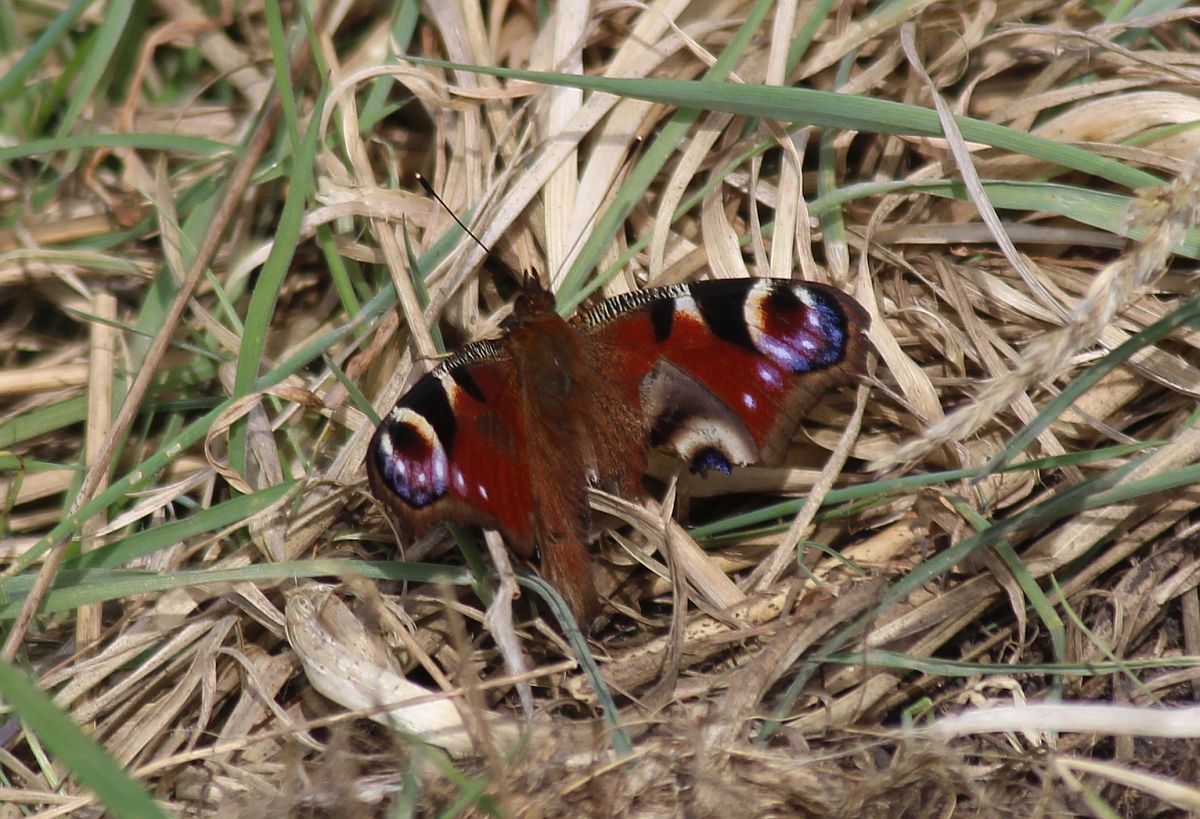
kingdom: Animalia
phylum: Arthropoda
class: Insecta
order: Lepidoptera
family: Nymphalidae
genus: Aglais
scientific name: Aglais io
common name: Peacock
